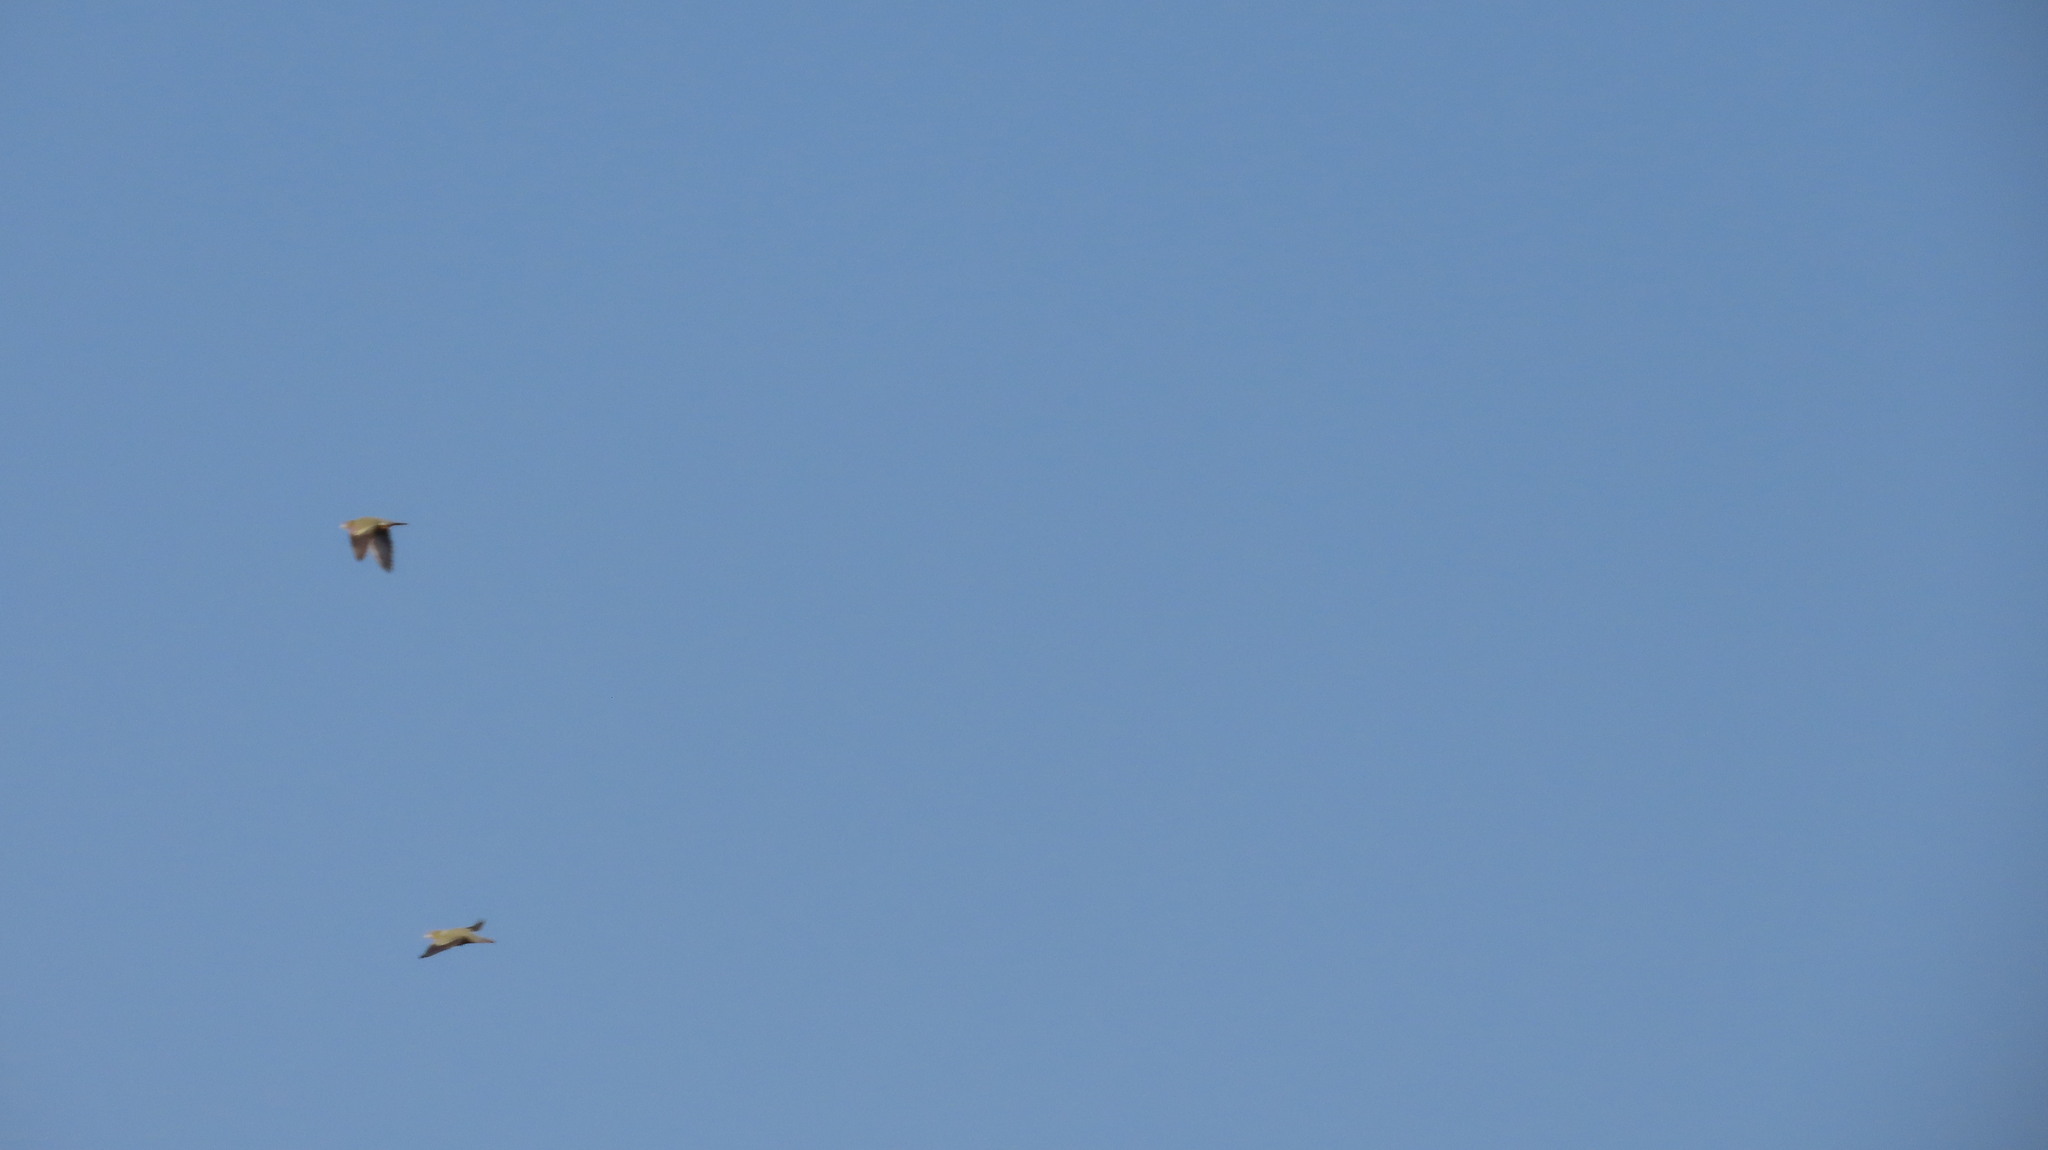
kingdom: Animalia
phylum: Chordata
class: Aves
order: Columbiformes
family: Columbidae
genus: Treron
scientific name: Treron phoenicopterus
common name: Yellow-footed green pigeon
